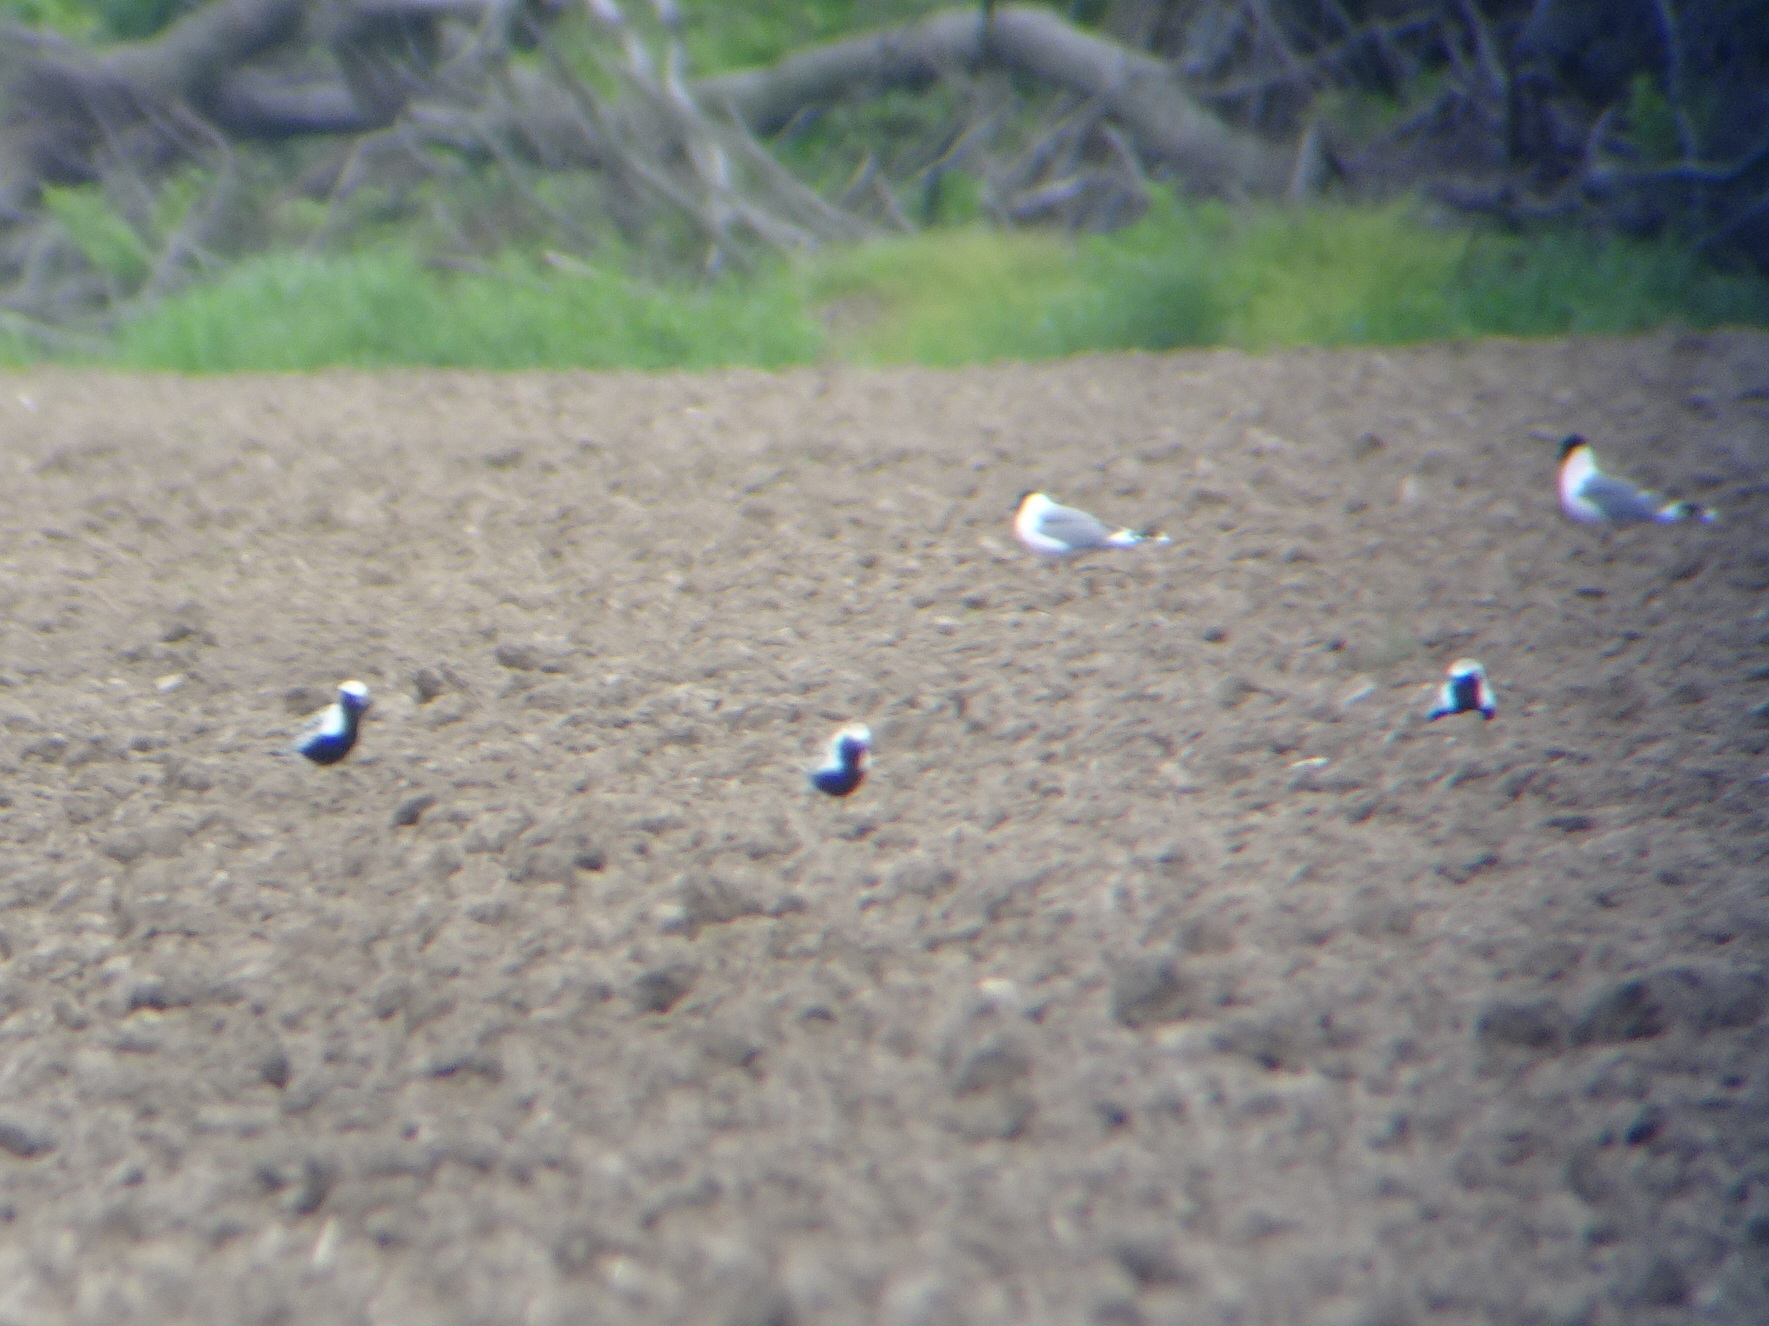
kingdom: Animalia
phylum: Chordata
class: Aves
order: Charadriiformes
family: Charadriidae
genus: Pluvialis
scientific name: Pluvialis squatarola
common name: Grey plover
